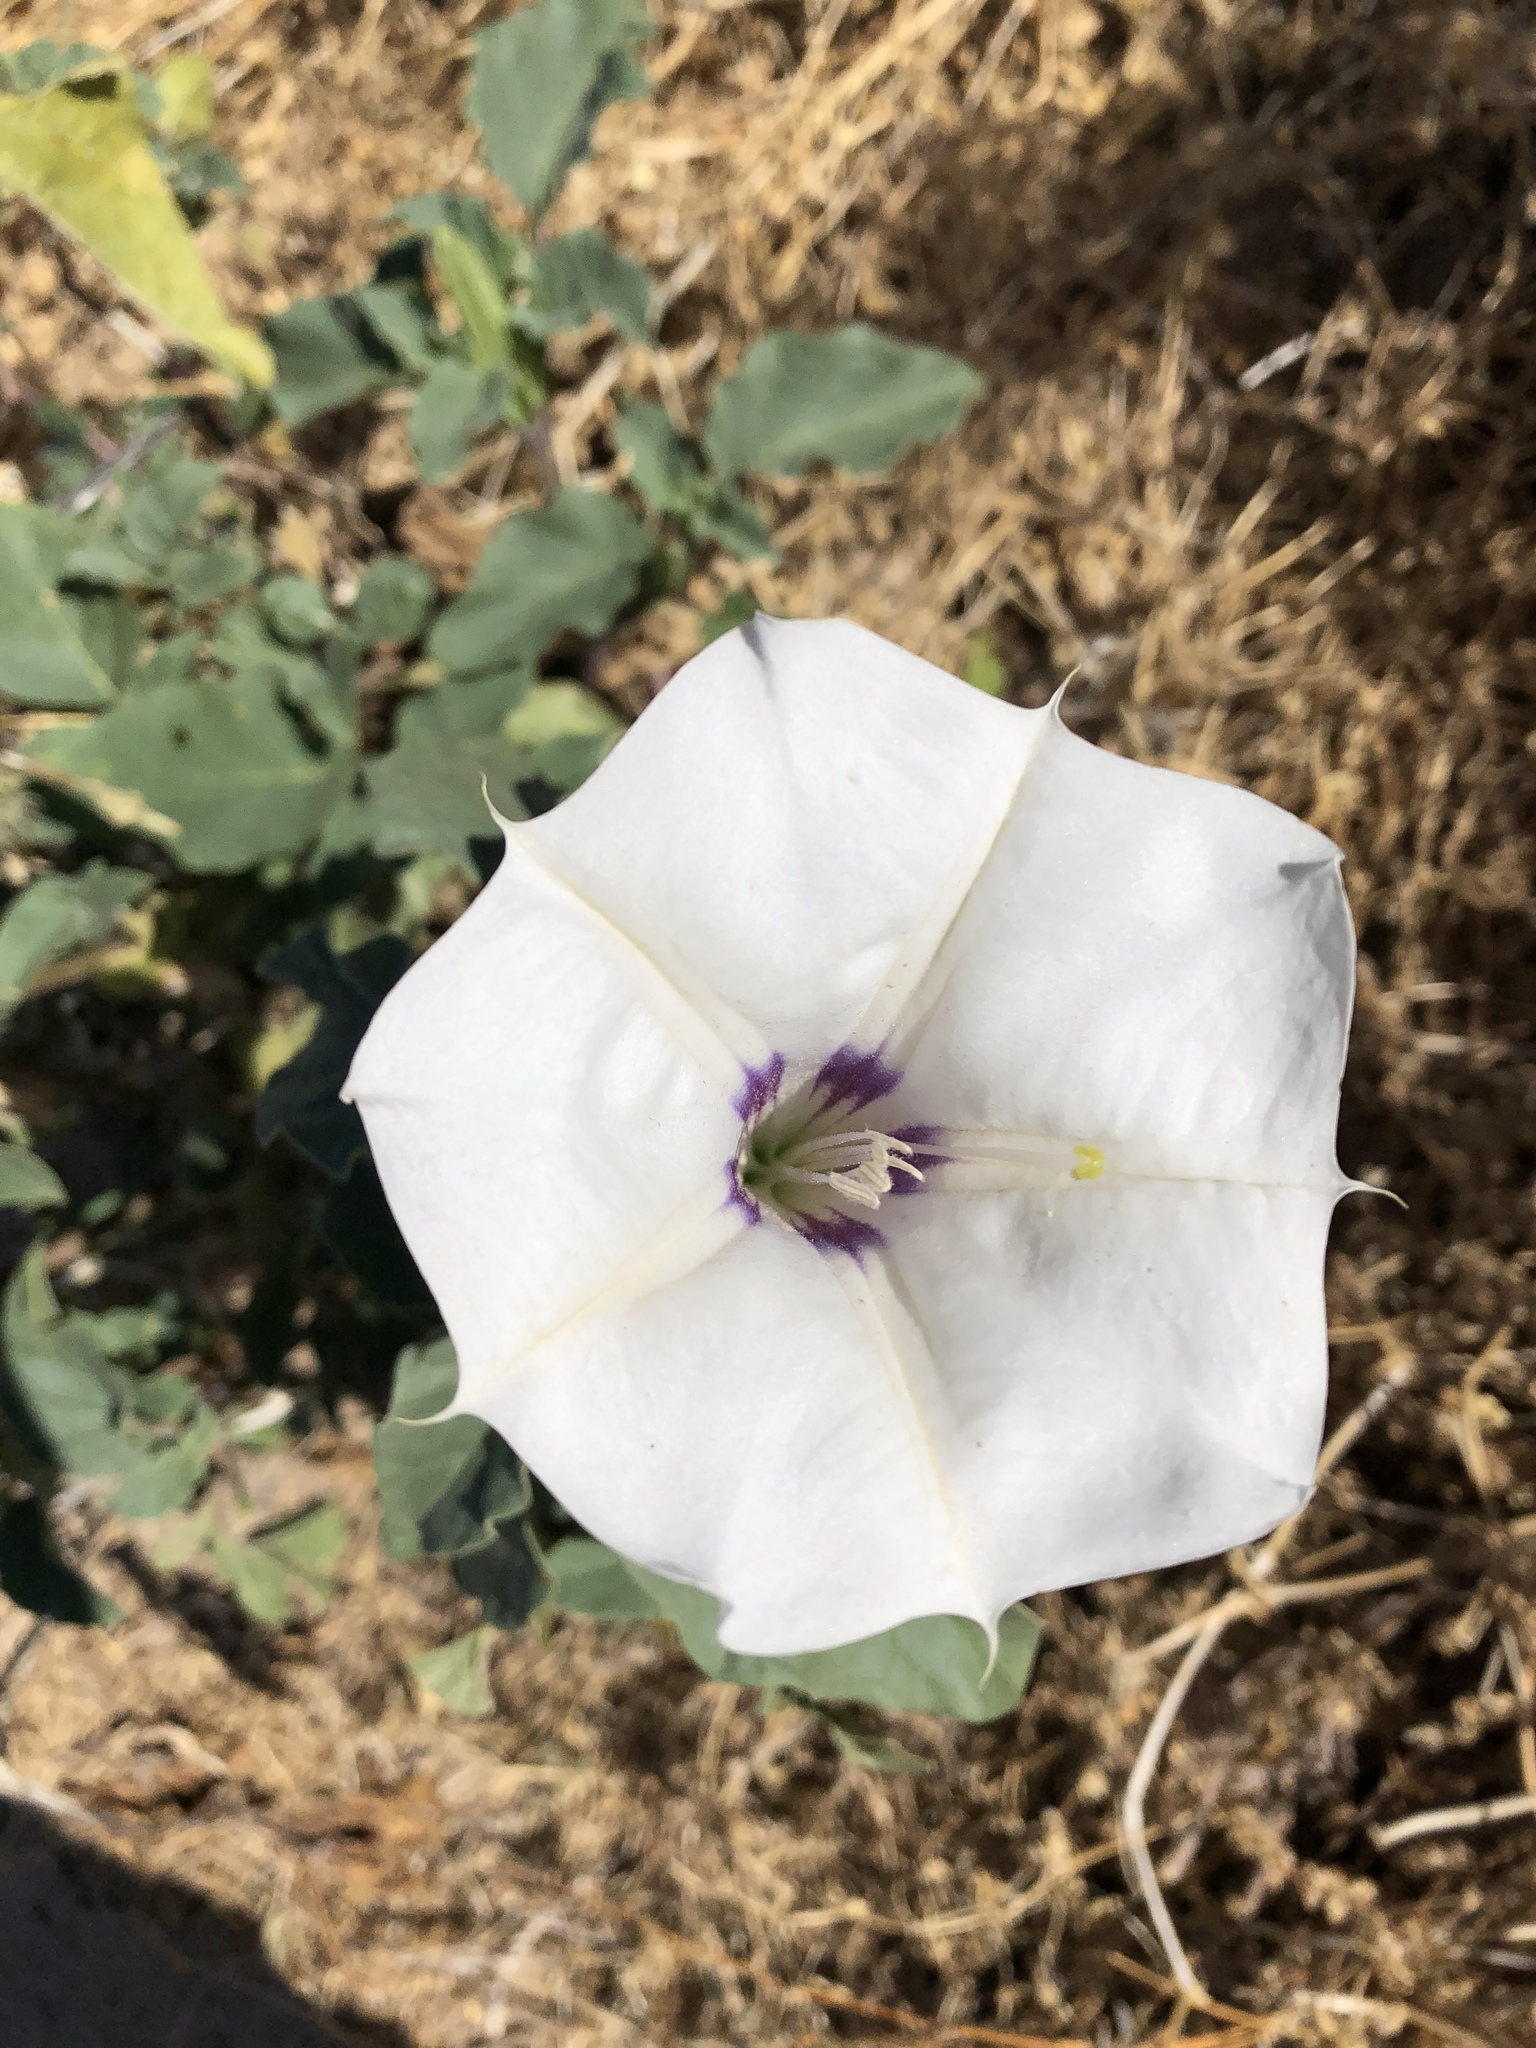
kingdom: Plantae
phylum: Tracheophyta
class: Magnoliopsida
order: Solanales
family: Solanaceae
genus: Datura
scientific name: Datura discolor
